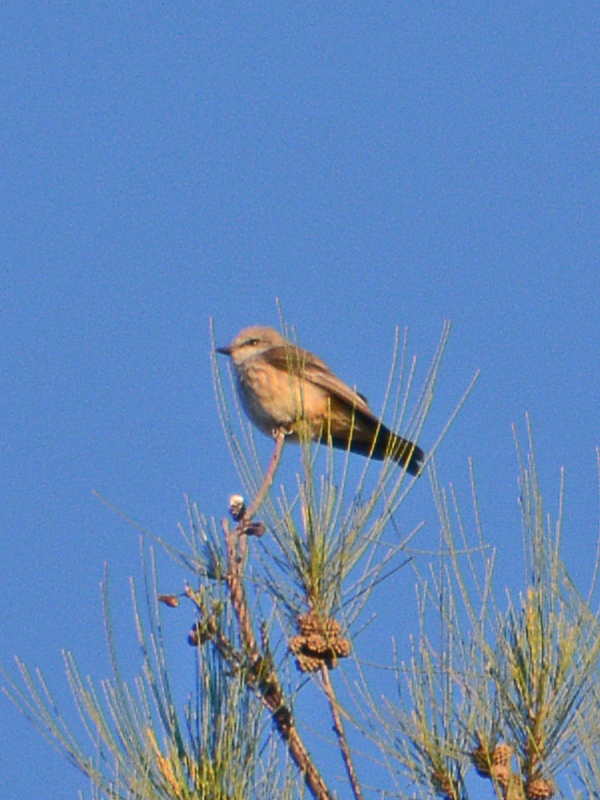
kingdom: Animalia
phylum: Chordata
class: Aves
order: Passeriformes
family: Tyrannidae
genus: Pyrocephalus
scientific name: Pyrocephalus rubinus
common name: Vermilion flycatcher
